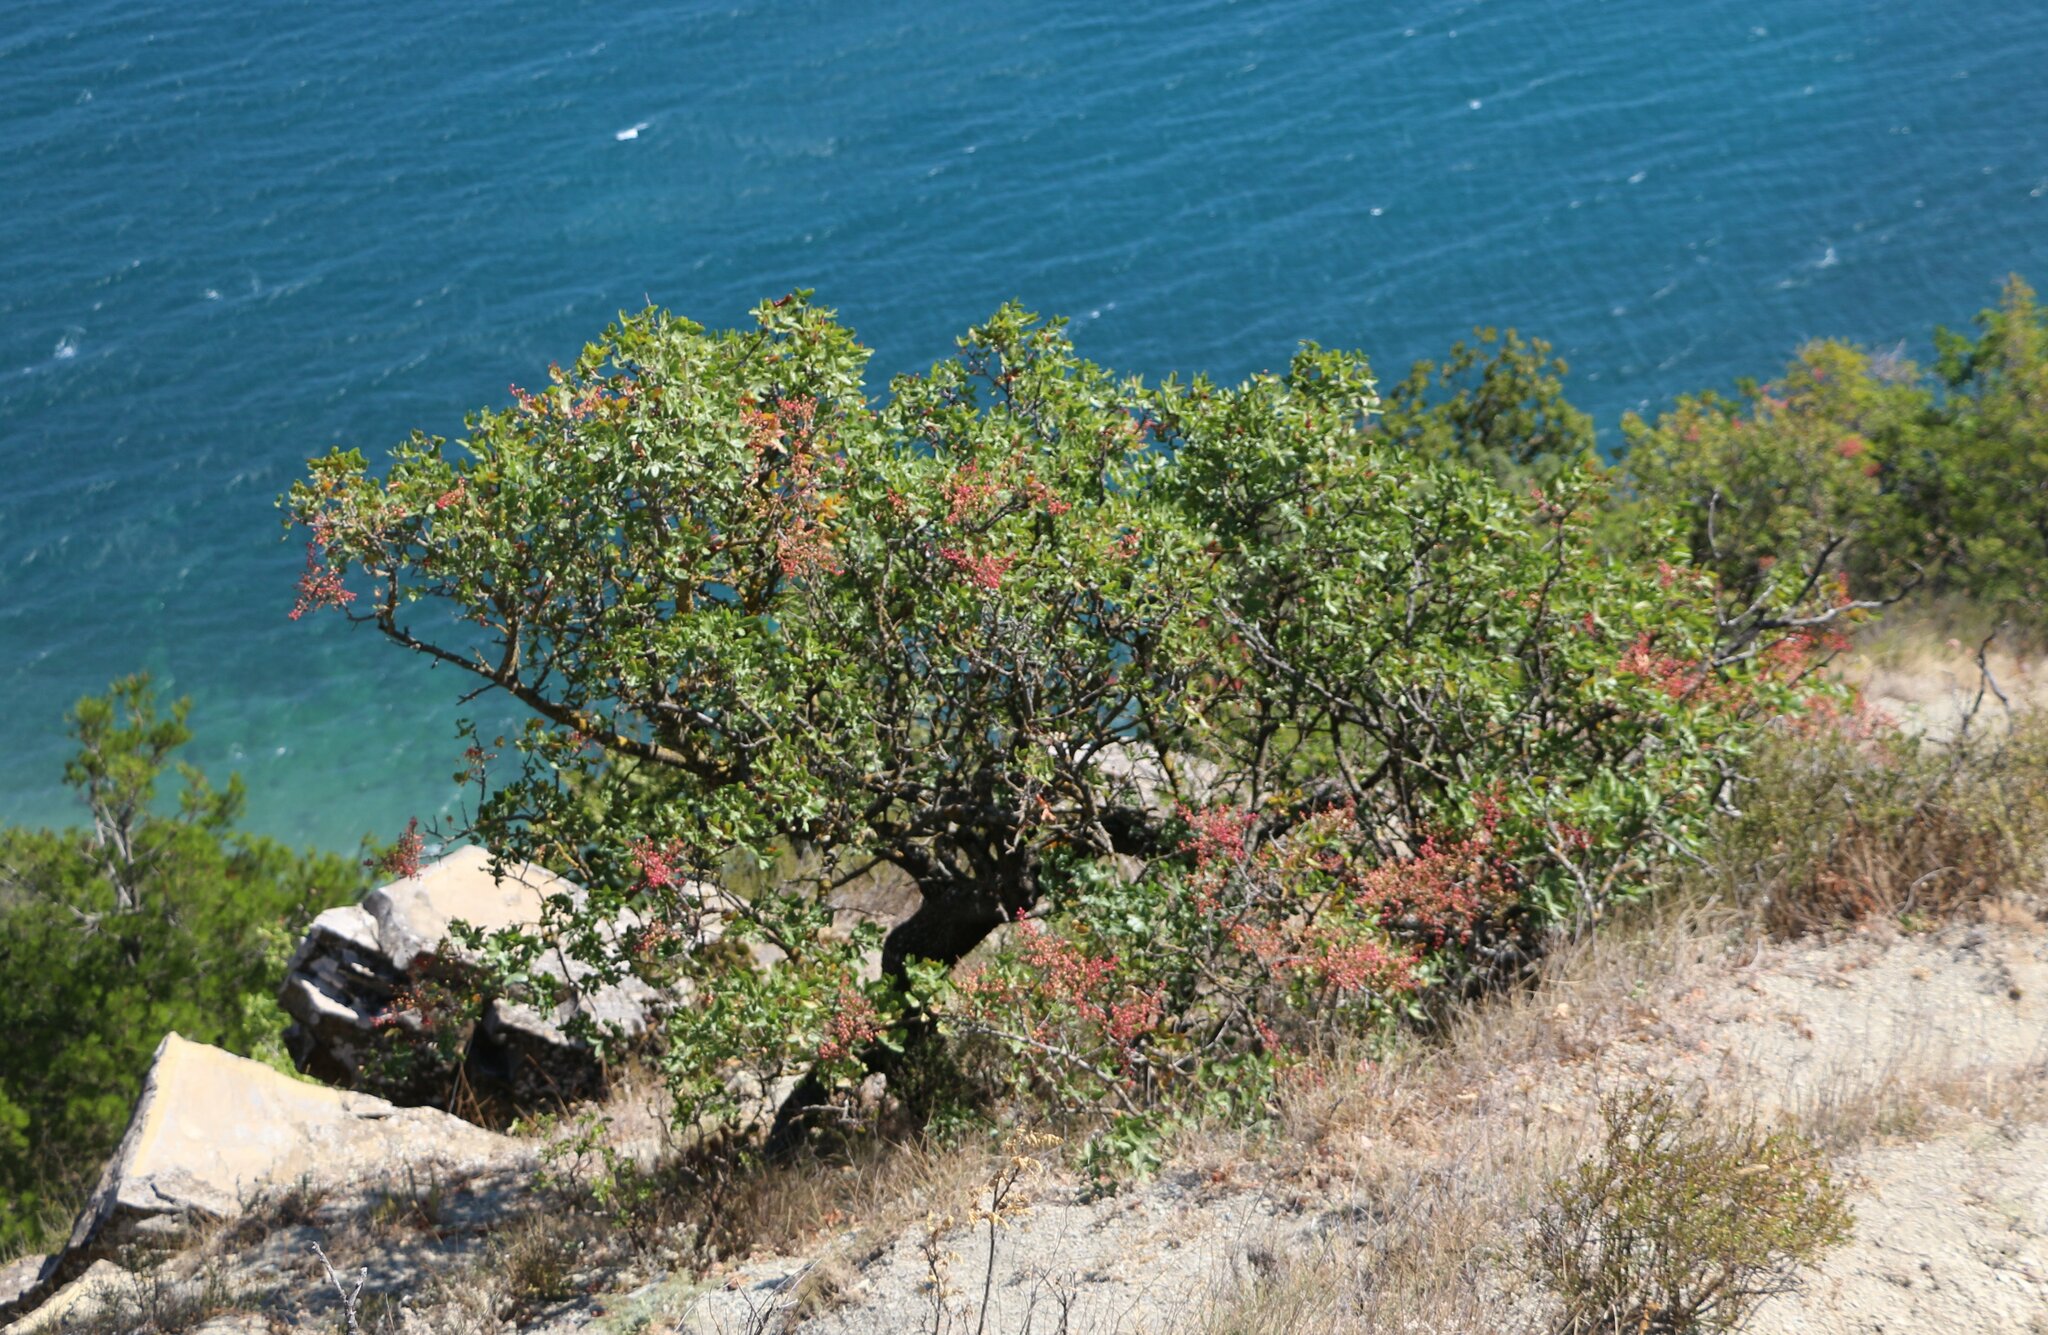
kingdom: Plantae
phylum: Tracheophyta
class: Magnoliopsida
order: Sapindales
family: Anacardiaceae
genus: Pistacia
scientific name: Pistacia atlantica
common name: Mt. atlas mastic tree
